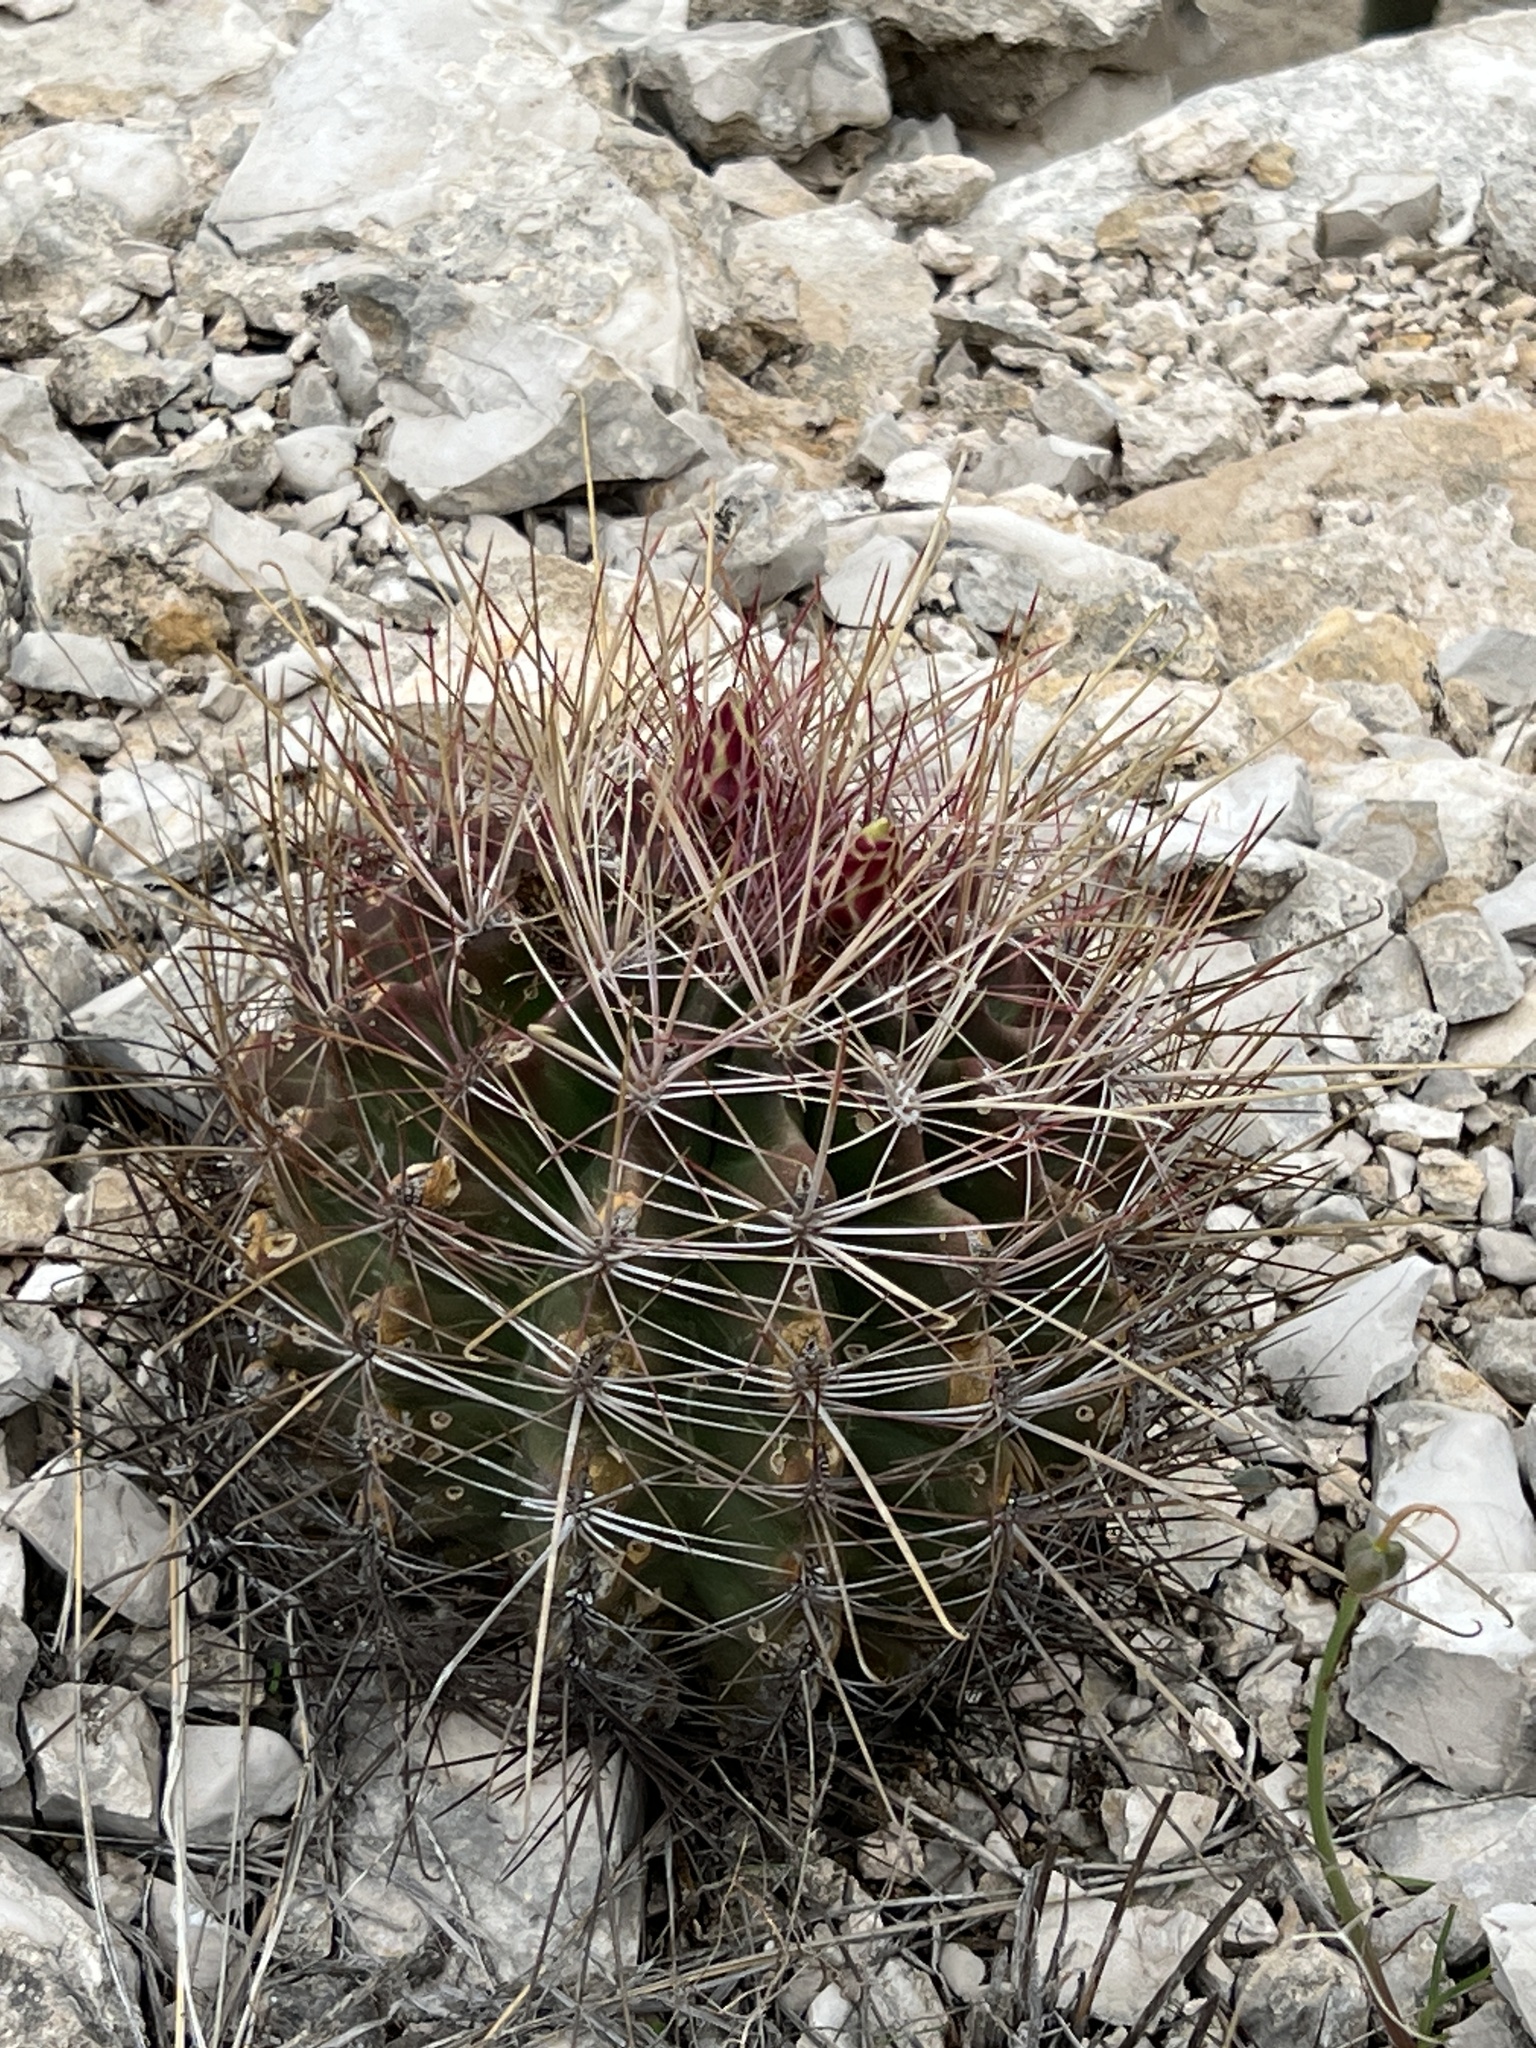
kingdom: Plantae
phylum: Tracheophyta
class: Magnoliopsida
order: Caryophyllales
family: Cactaceae
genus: Bisnaga
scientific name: Bisnaga hamatacantha
